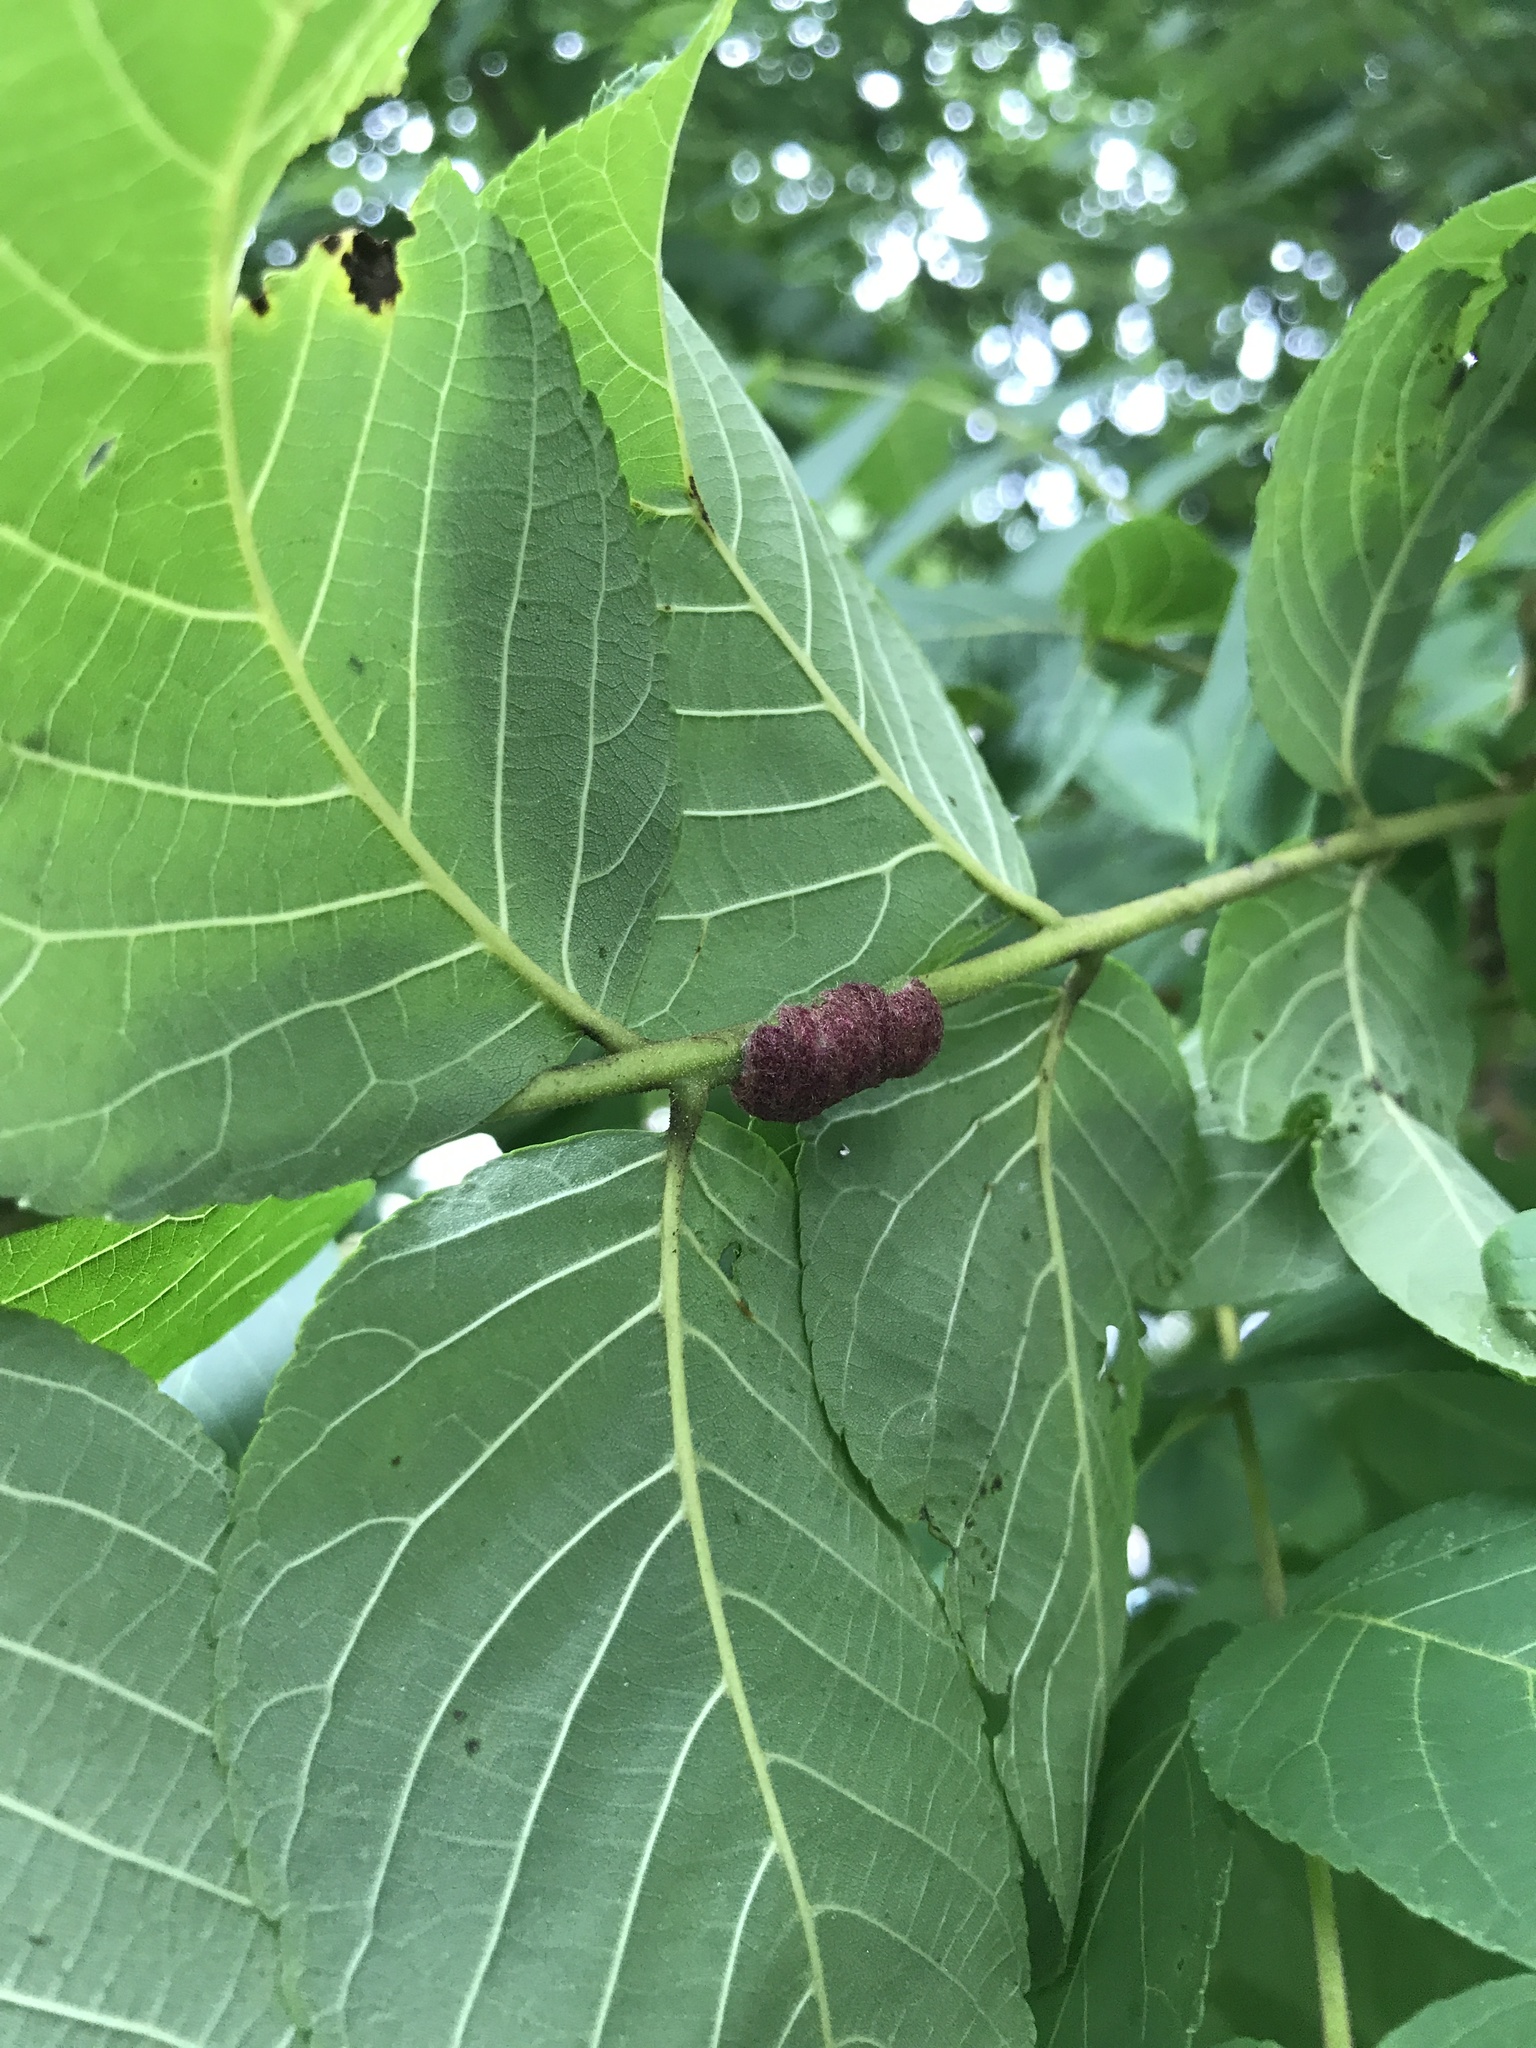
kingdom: Animalia
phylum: Arthropoda
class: Arachnida
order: Trombidiformes
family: Eriophyidae
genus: Aceria
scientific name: Aceria
